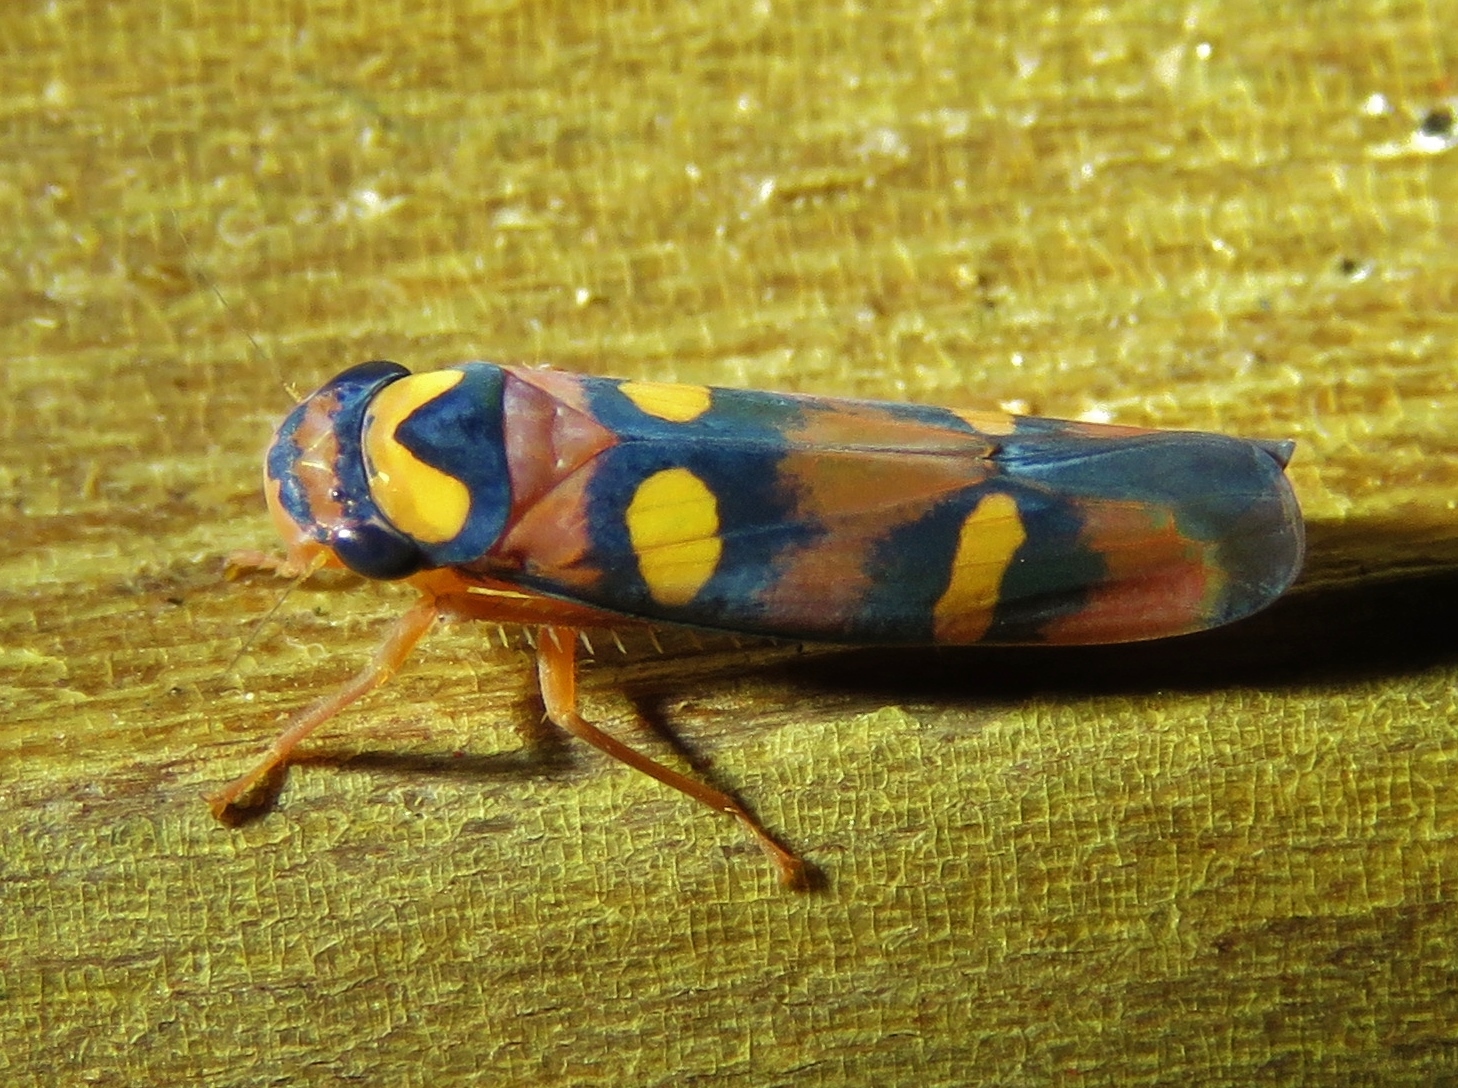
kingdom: Animalia
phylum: Arthropoda
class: Insecta
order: Hemiptera
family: Cicadellidae
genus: Pawiloma
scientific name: Pawiloma jucunda
